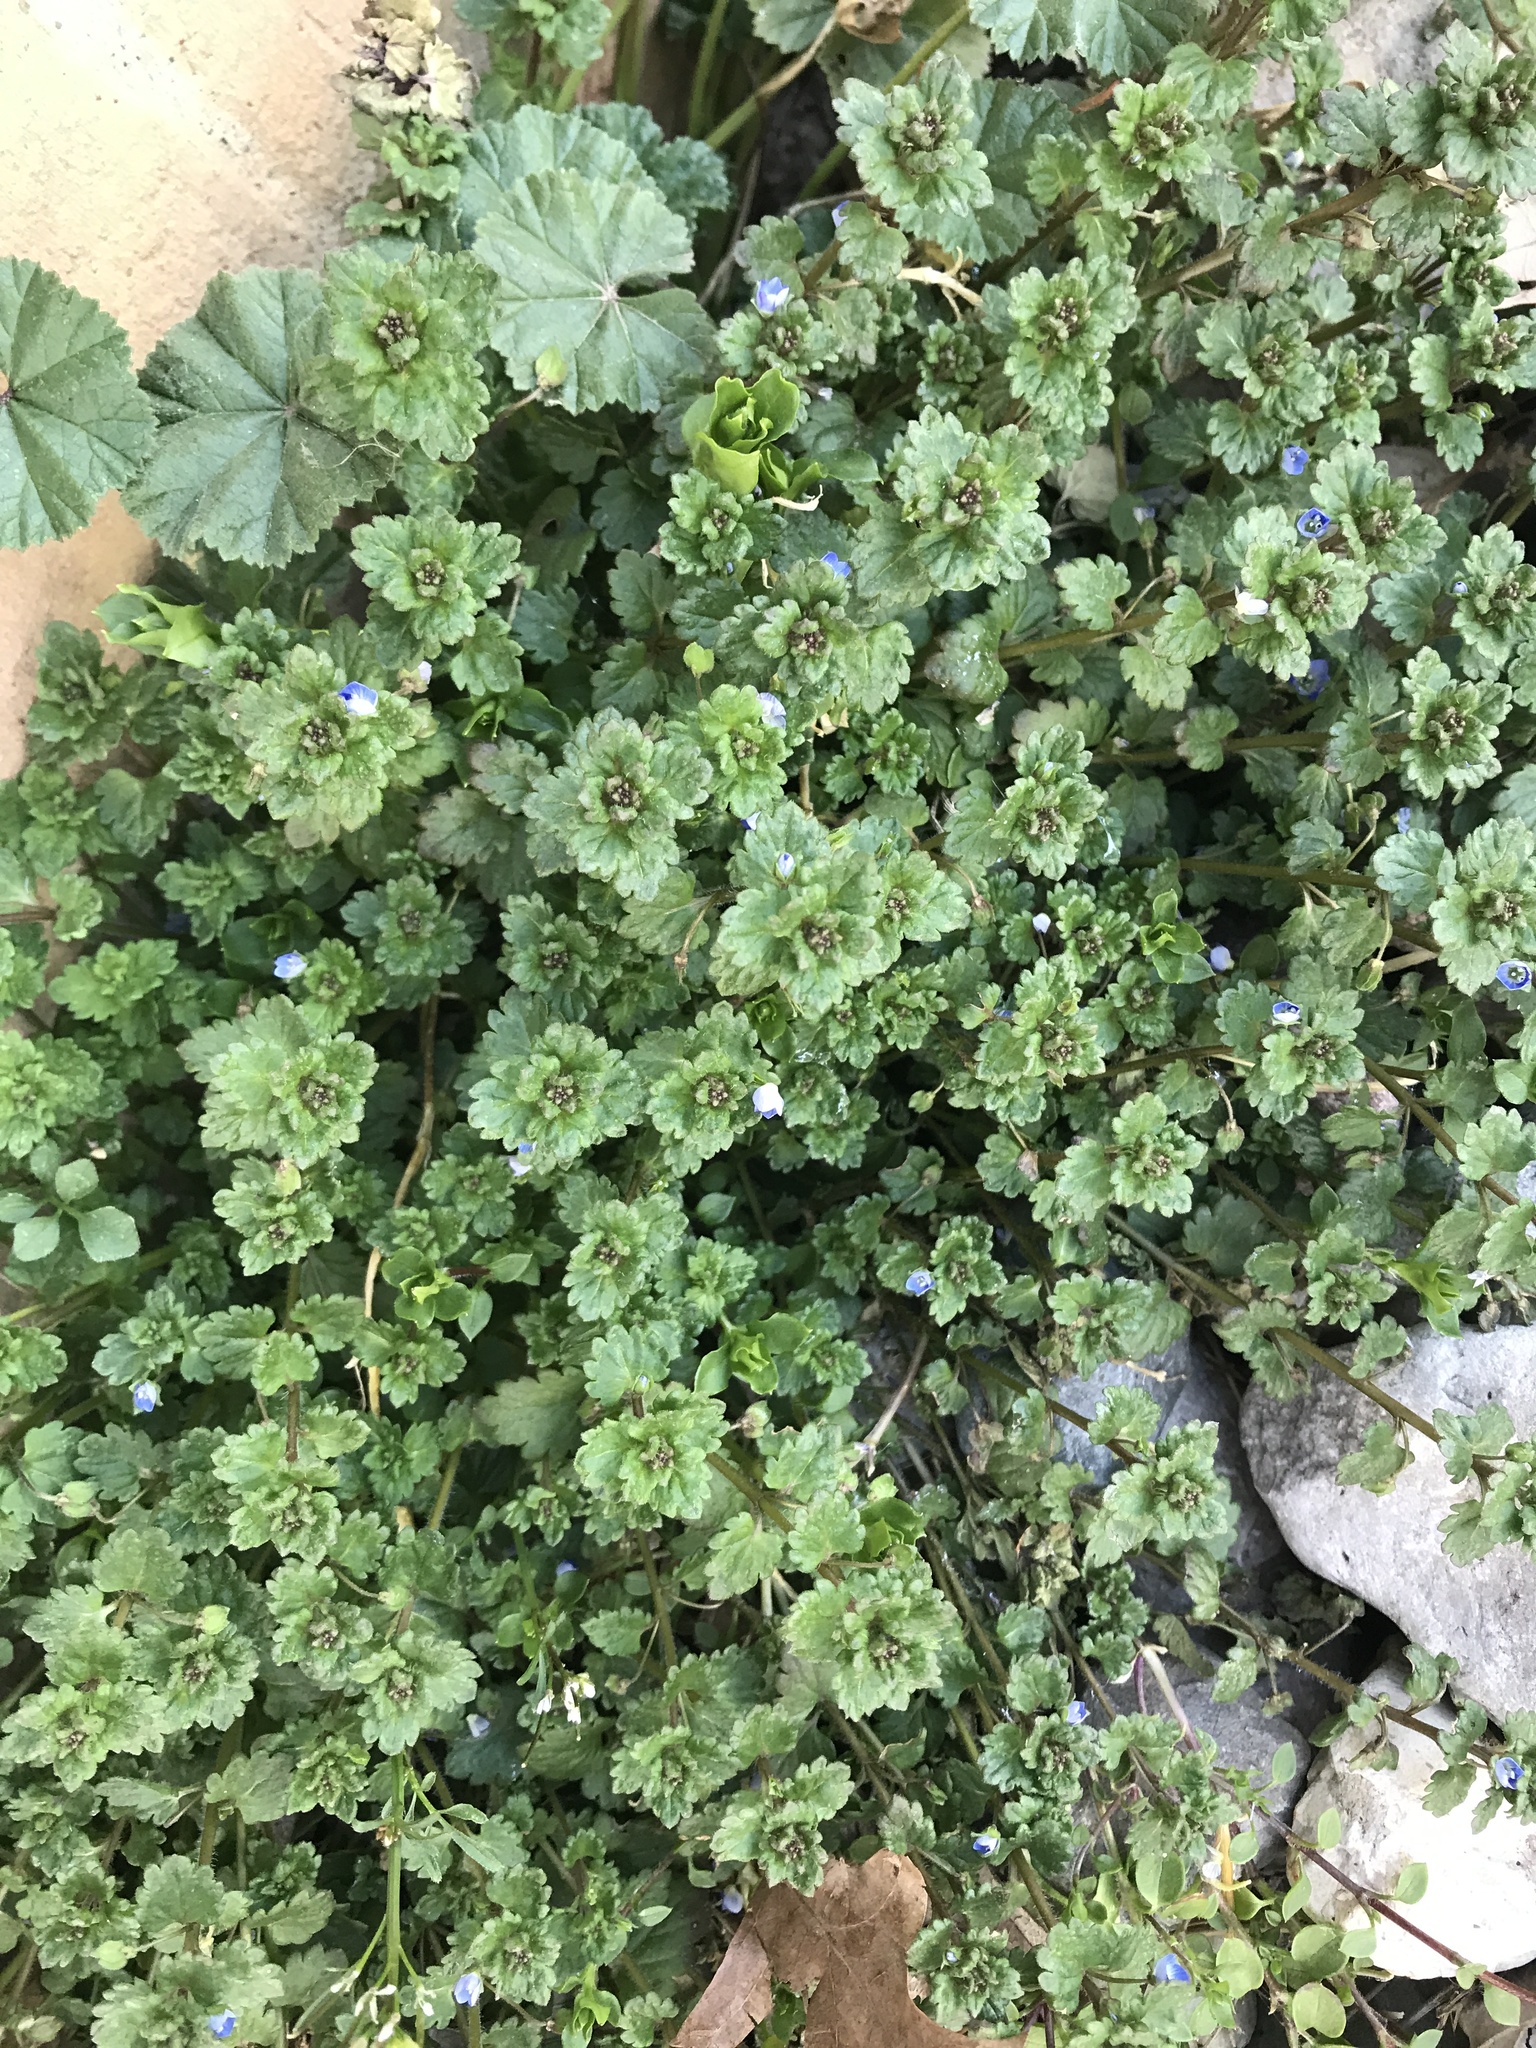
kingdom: Plantae
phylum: Tracheophyta
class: Magnoliopsida
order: Lamiales
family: Plantaginaceae
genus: Veronica
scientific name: Veronica polita
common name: Grey field-speedwell
